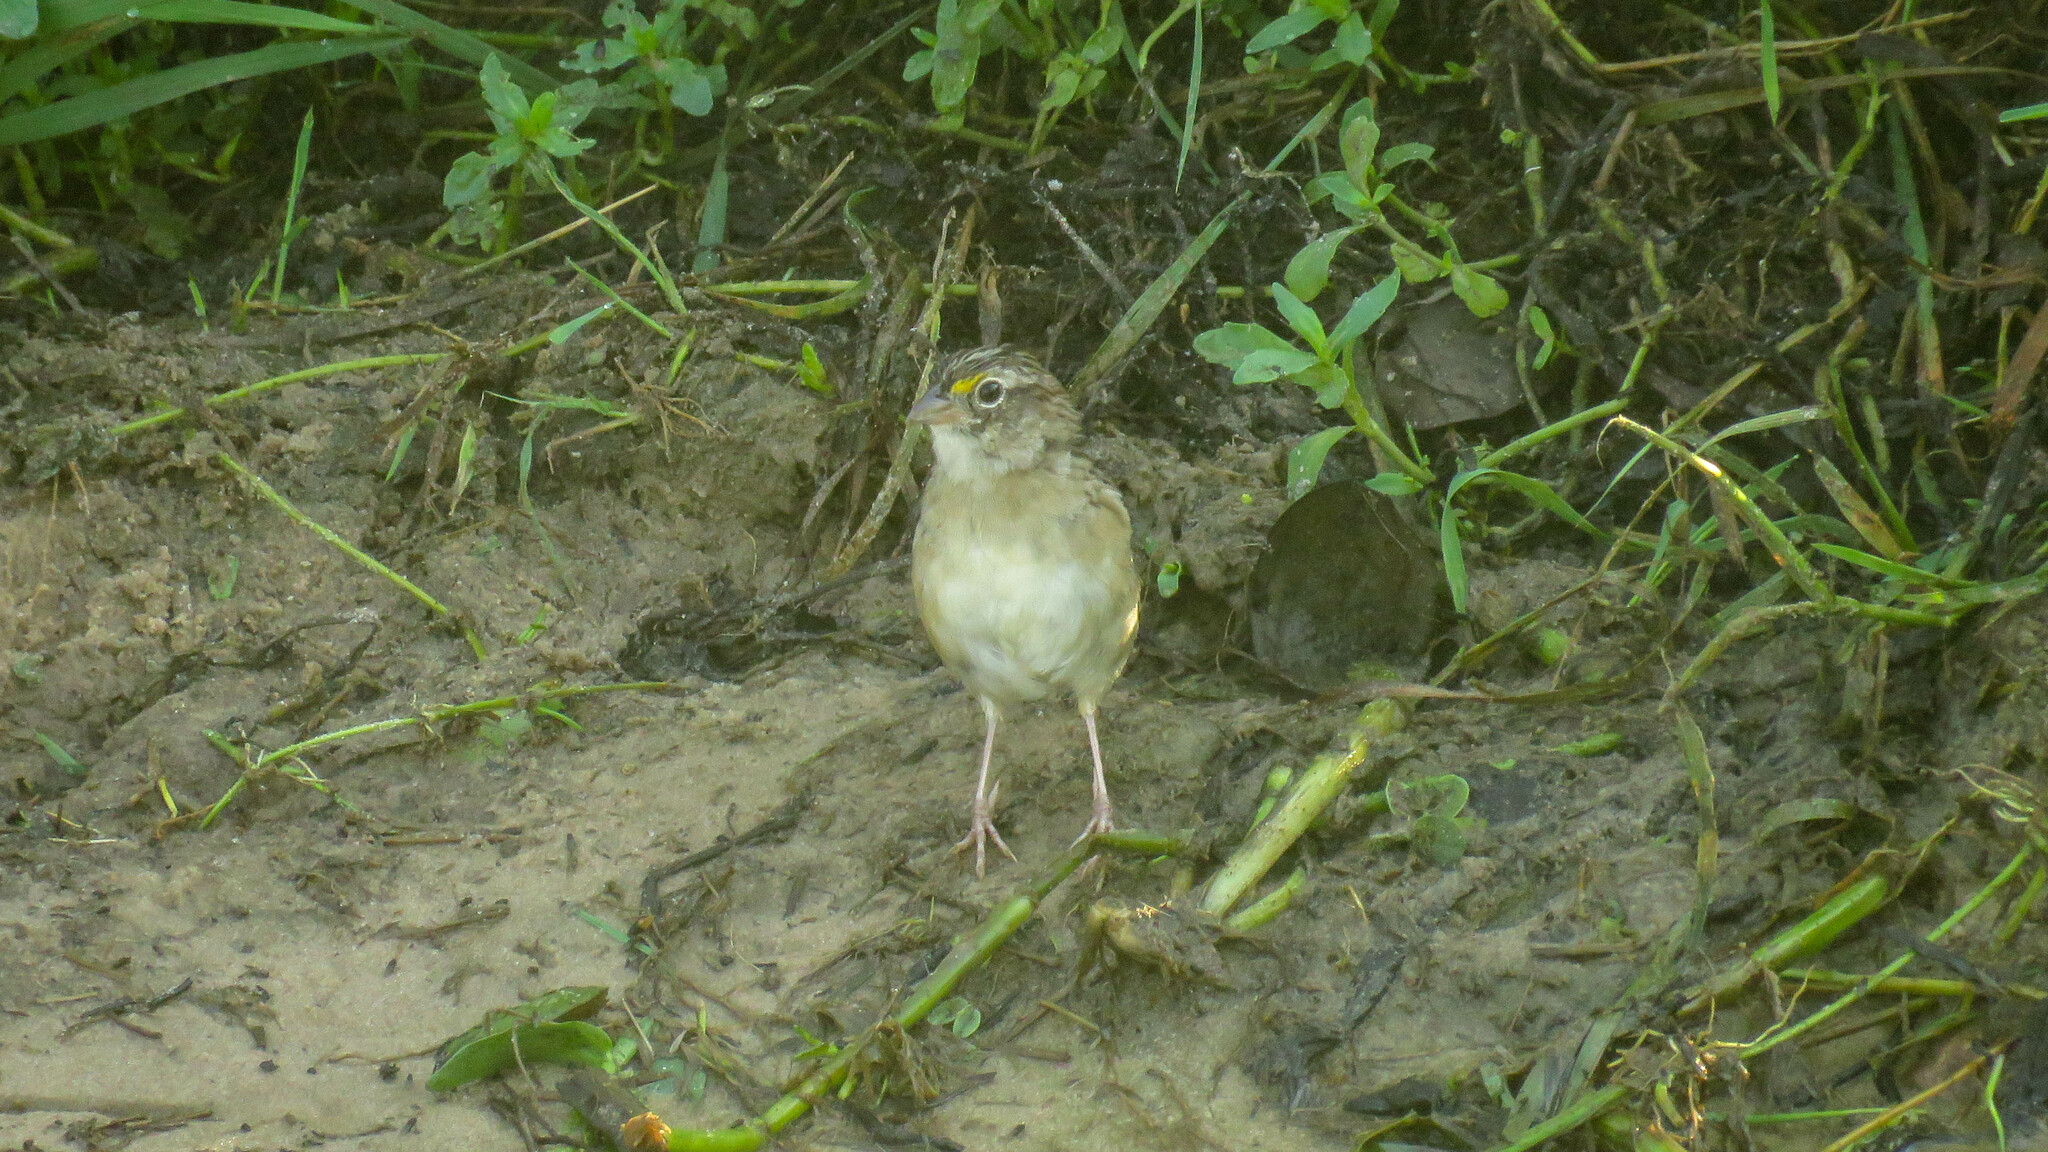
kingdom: Animalia
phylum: Chordata
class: Aves
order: Passeriformes
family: Passerellidae
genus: Ammodramus
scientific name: Ammodramus humeralis
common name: Grassland sparrow
